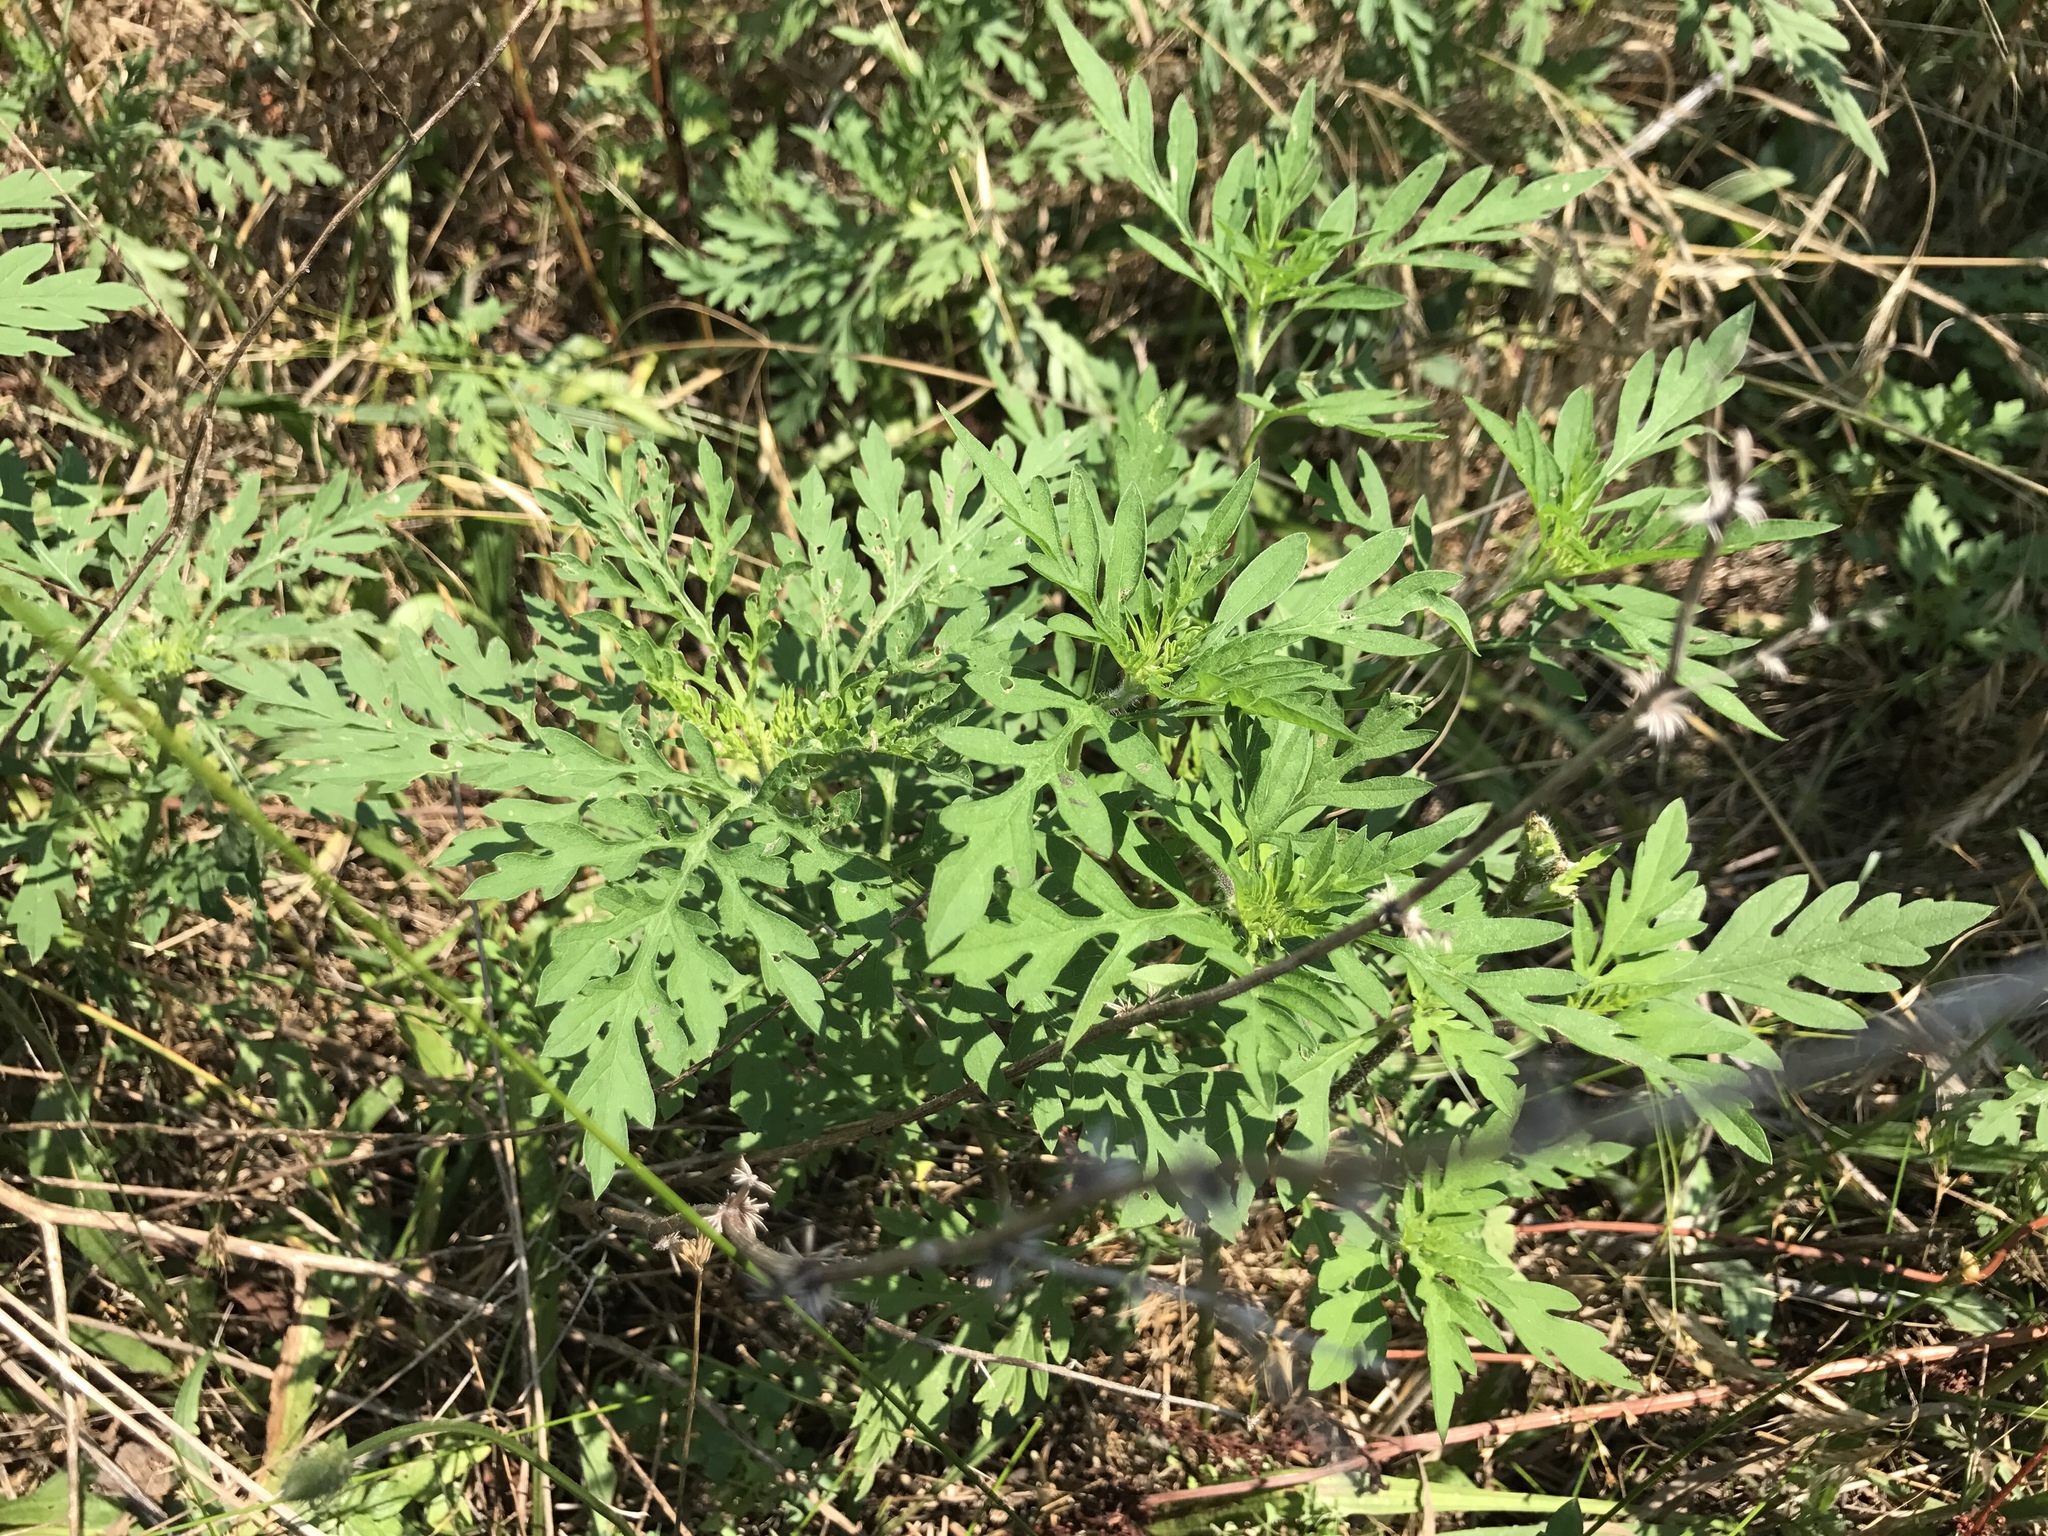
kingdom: Plantae
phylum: Tracheophyta
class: Magnoliopsida
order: Asterales
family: Asteraceae
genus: Ambrosia
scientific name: Ambrosia artemisiifolia
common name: Annual ragweed
